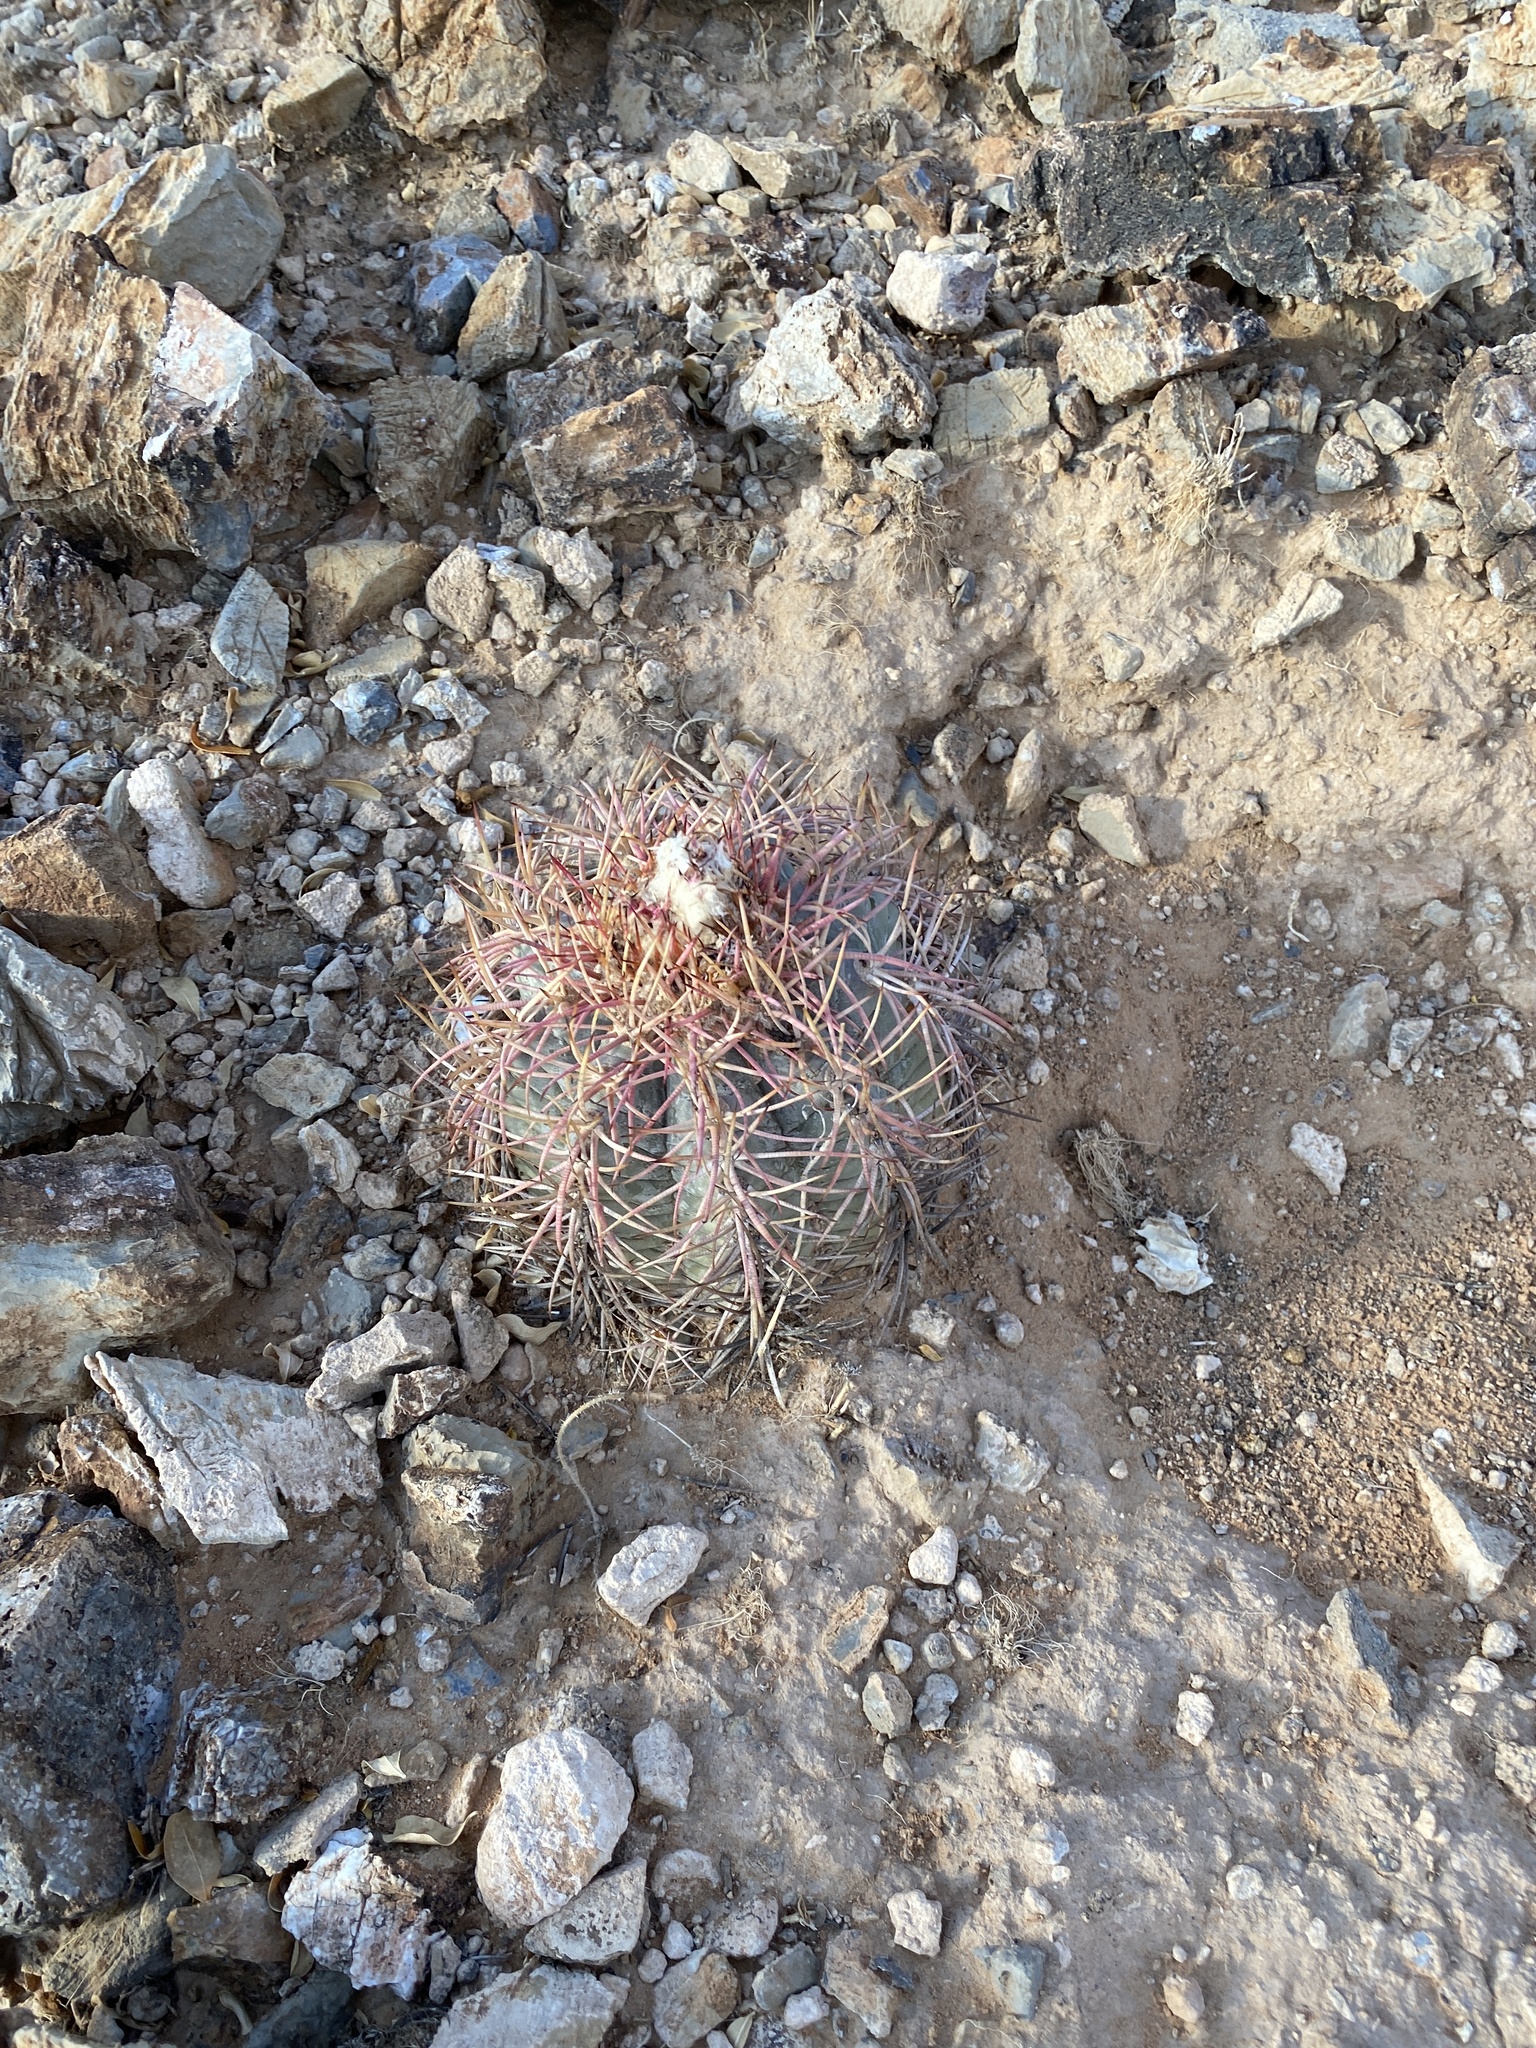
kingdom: Plantae
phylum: Tracheophyta
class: Magnoliopsida
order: Caryophyllales
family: Cactaceae
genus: Echinocactus
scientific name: Echinocactus horizonthalonius
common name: Devilshead
